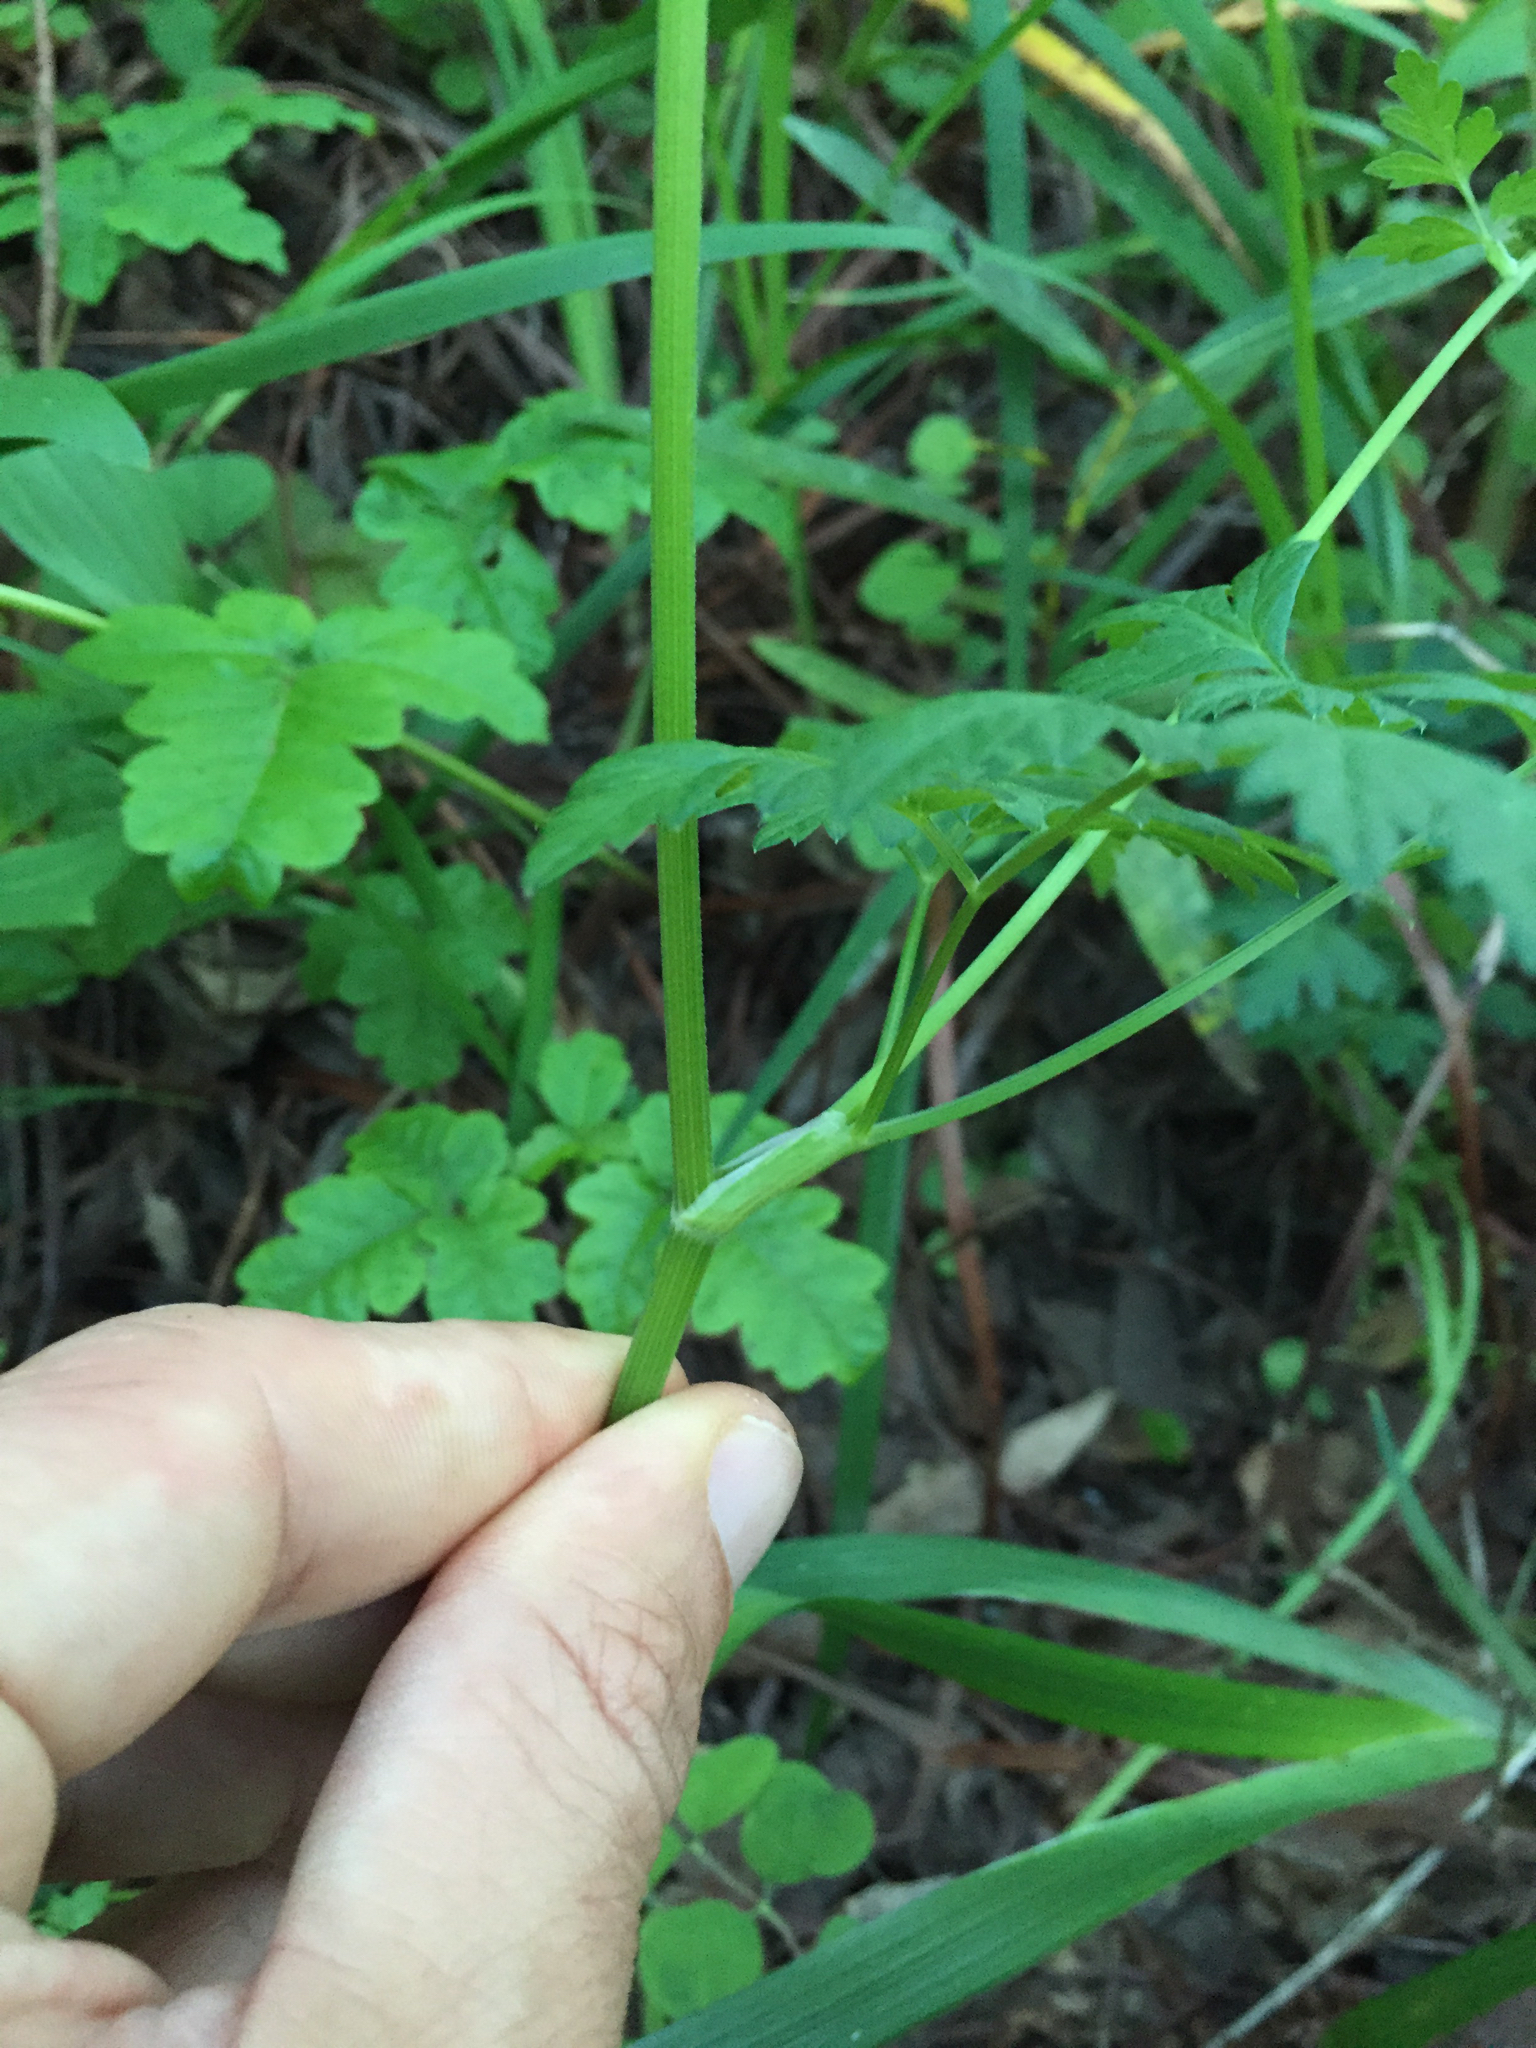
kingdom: Plantae
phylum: Tracheophyta
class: Magnoliopsida
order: Apiales
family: Apiaceae
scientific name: Apiaceae
